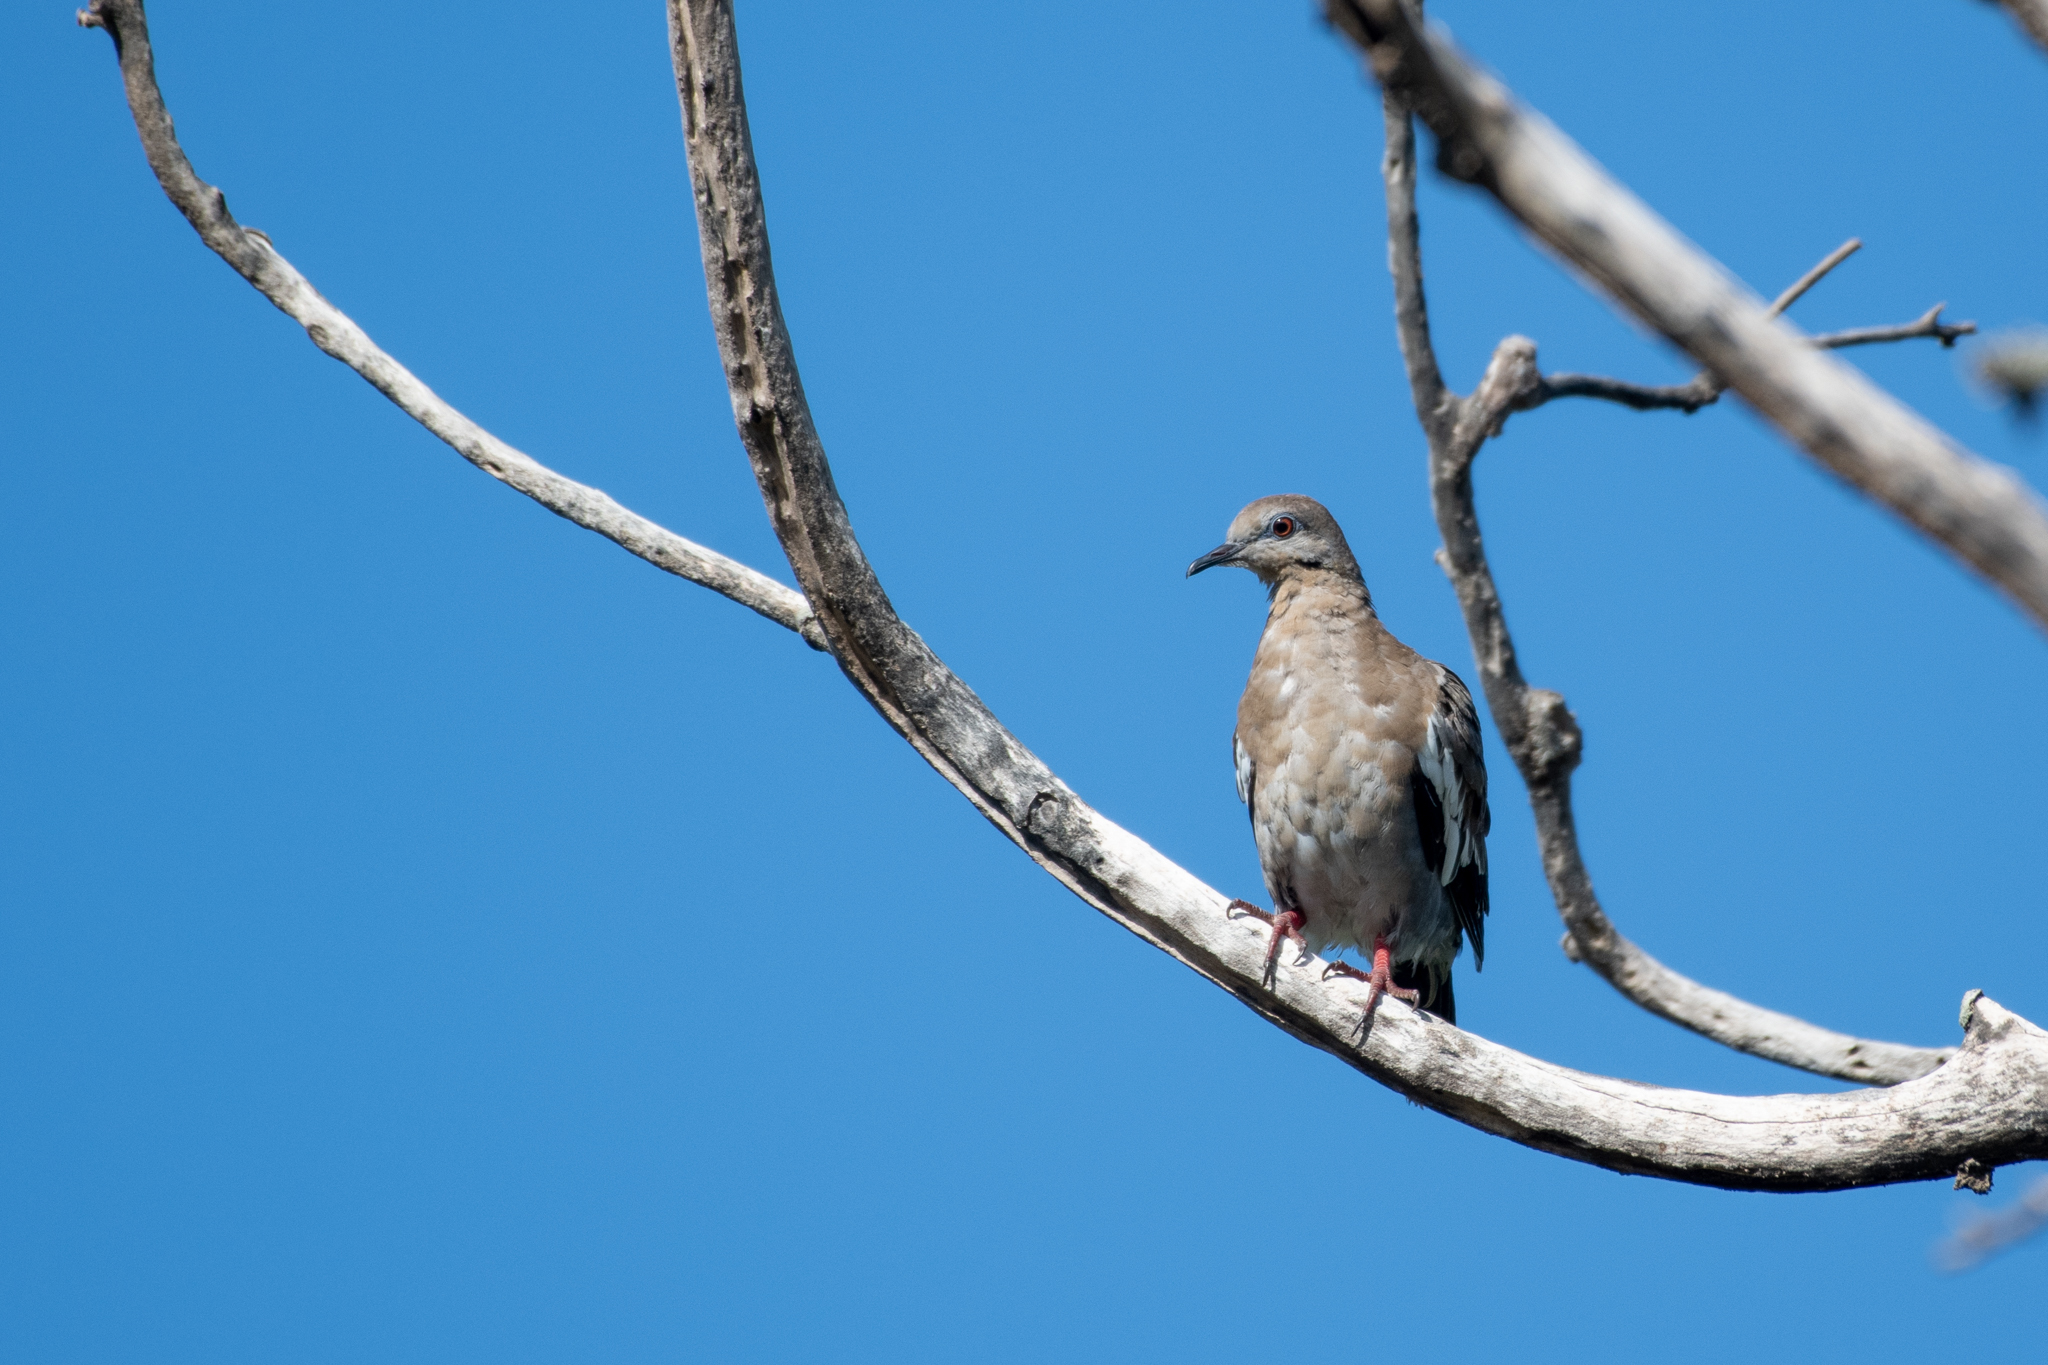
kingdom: Animalia
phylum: Chordata
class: Aves
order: Columbiformes
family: Columbidae
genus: Zenaida
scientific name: Zenaida asiatica
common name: White-winged dove
